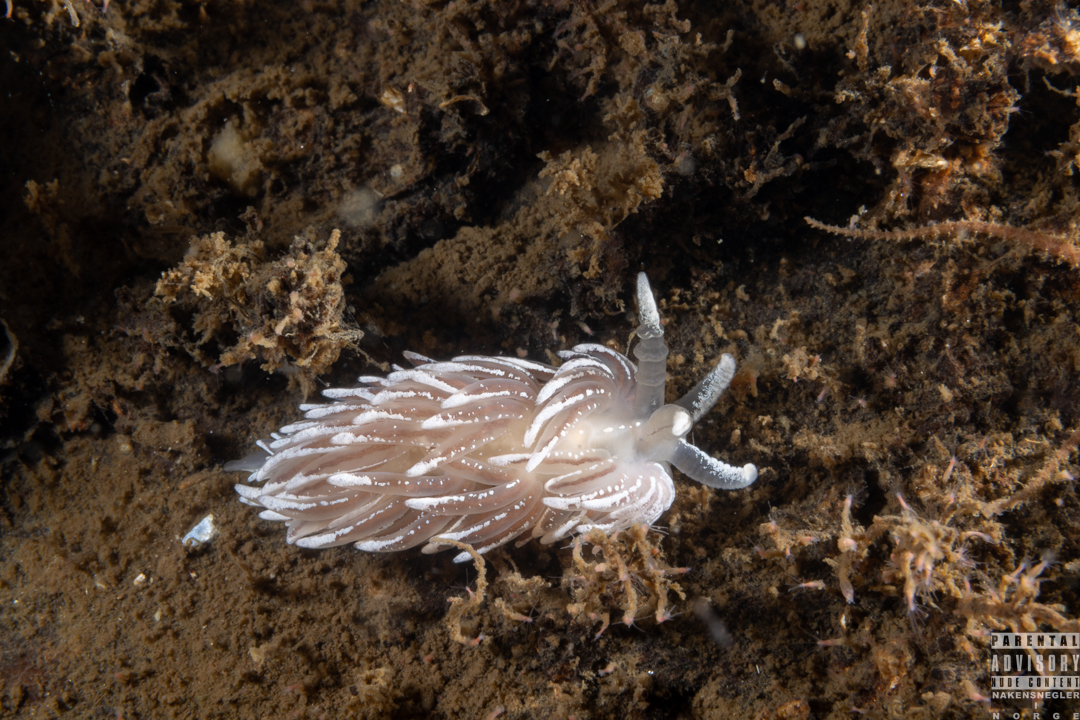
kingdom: Animalia
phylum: Mollusca
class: Gastropoda
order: Nudibranchia
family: Facelinidae
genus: Favorinus
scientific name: Favorinus blianus
